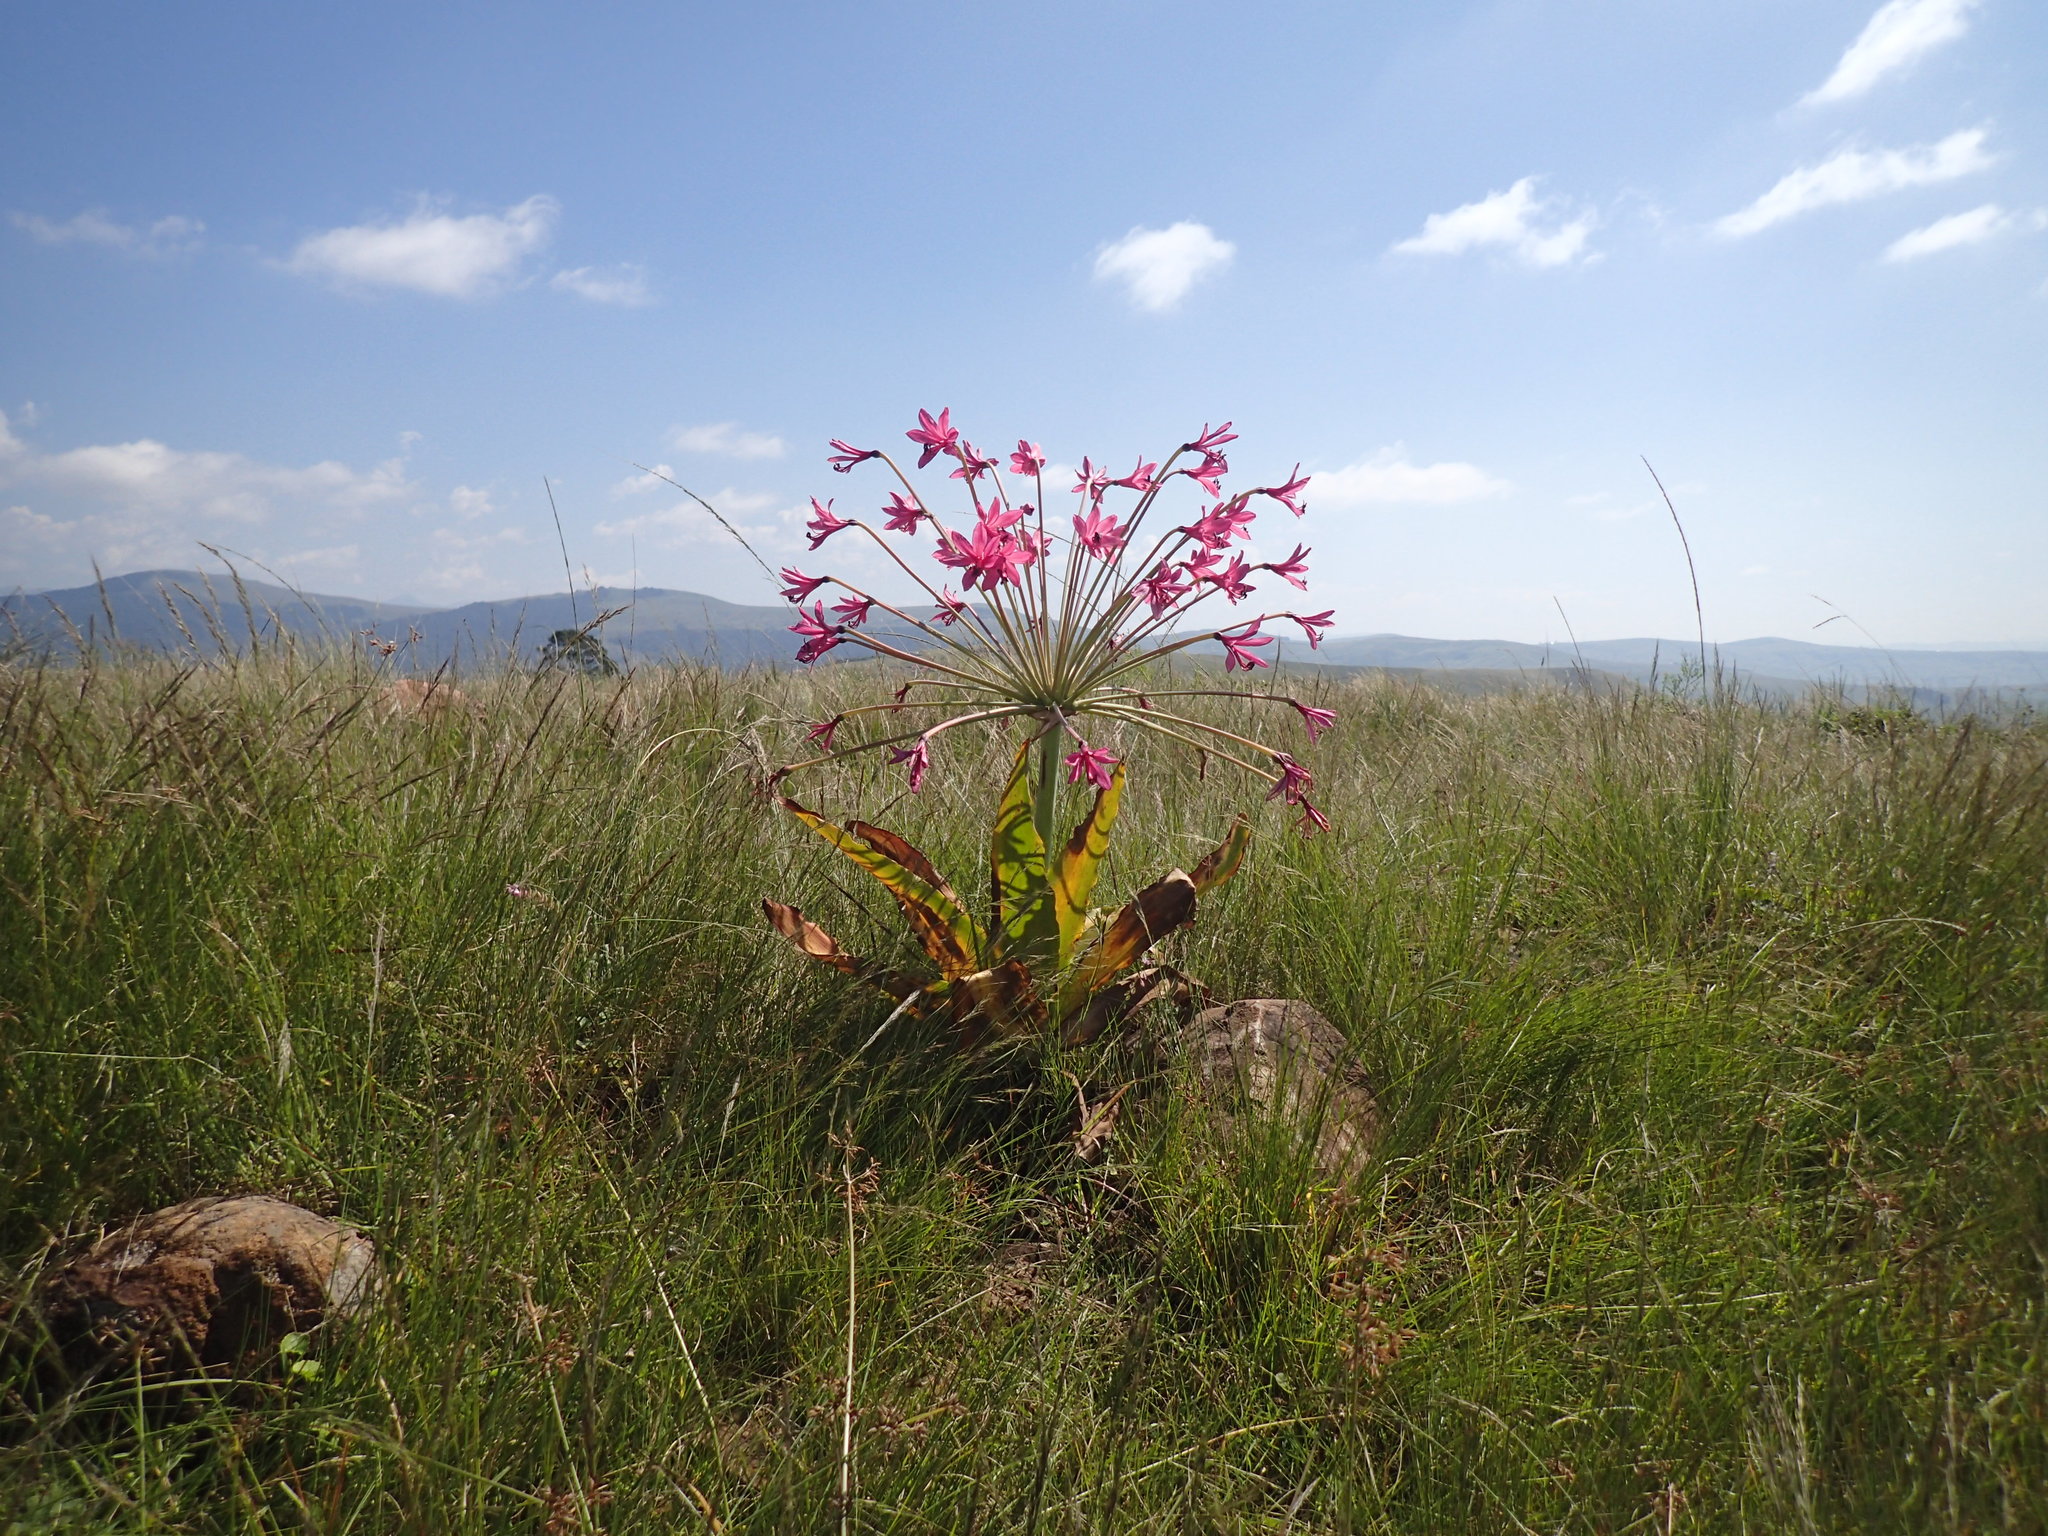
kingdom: Plantae
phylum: Tracheophyta
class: Liliopsida
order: Asparagales
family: Amaryllidaceae
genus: Brunsvigia
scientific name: Brunsvigia grandiflora
